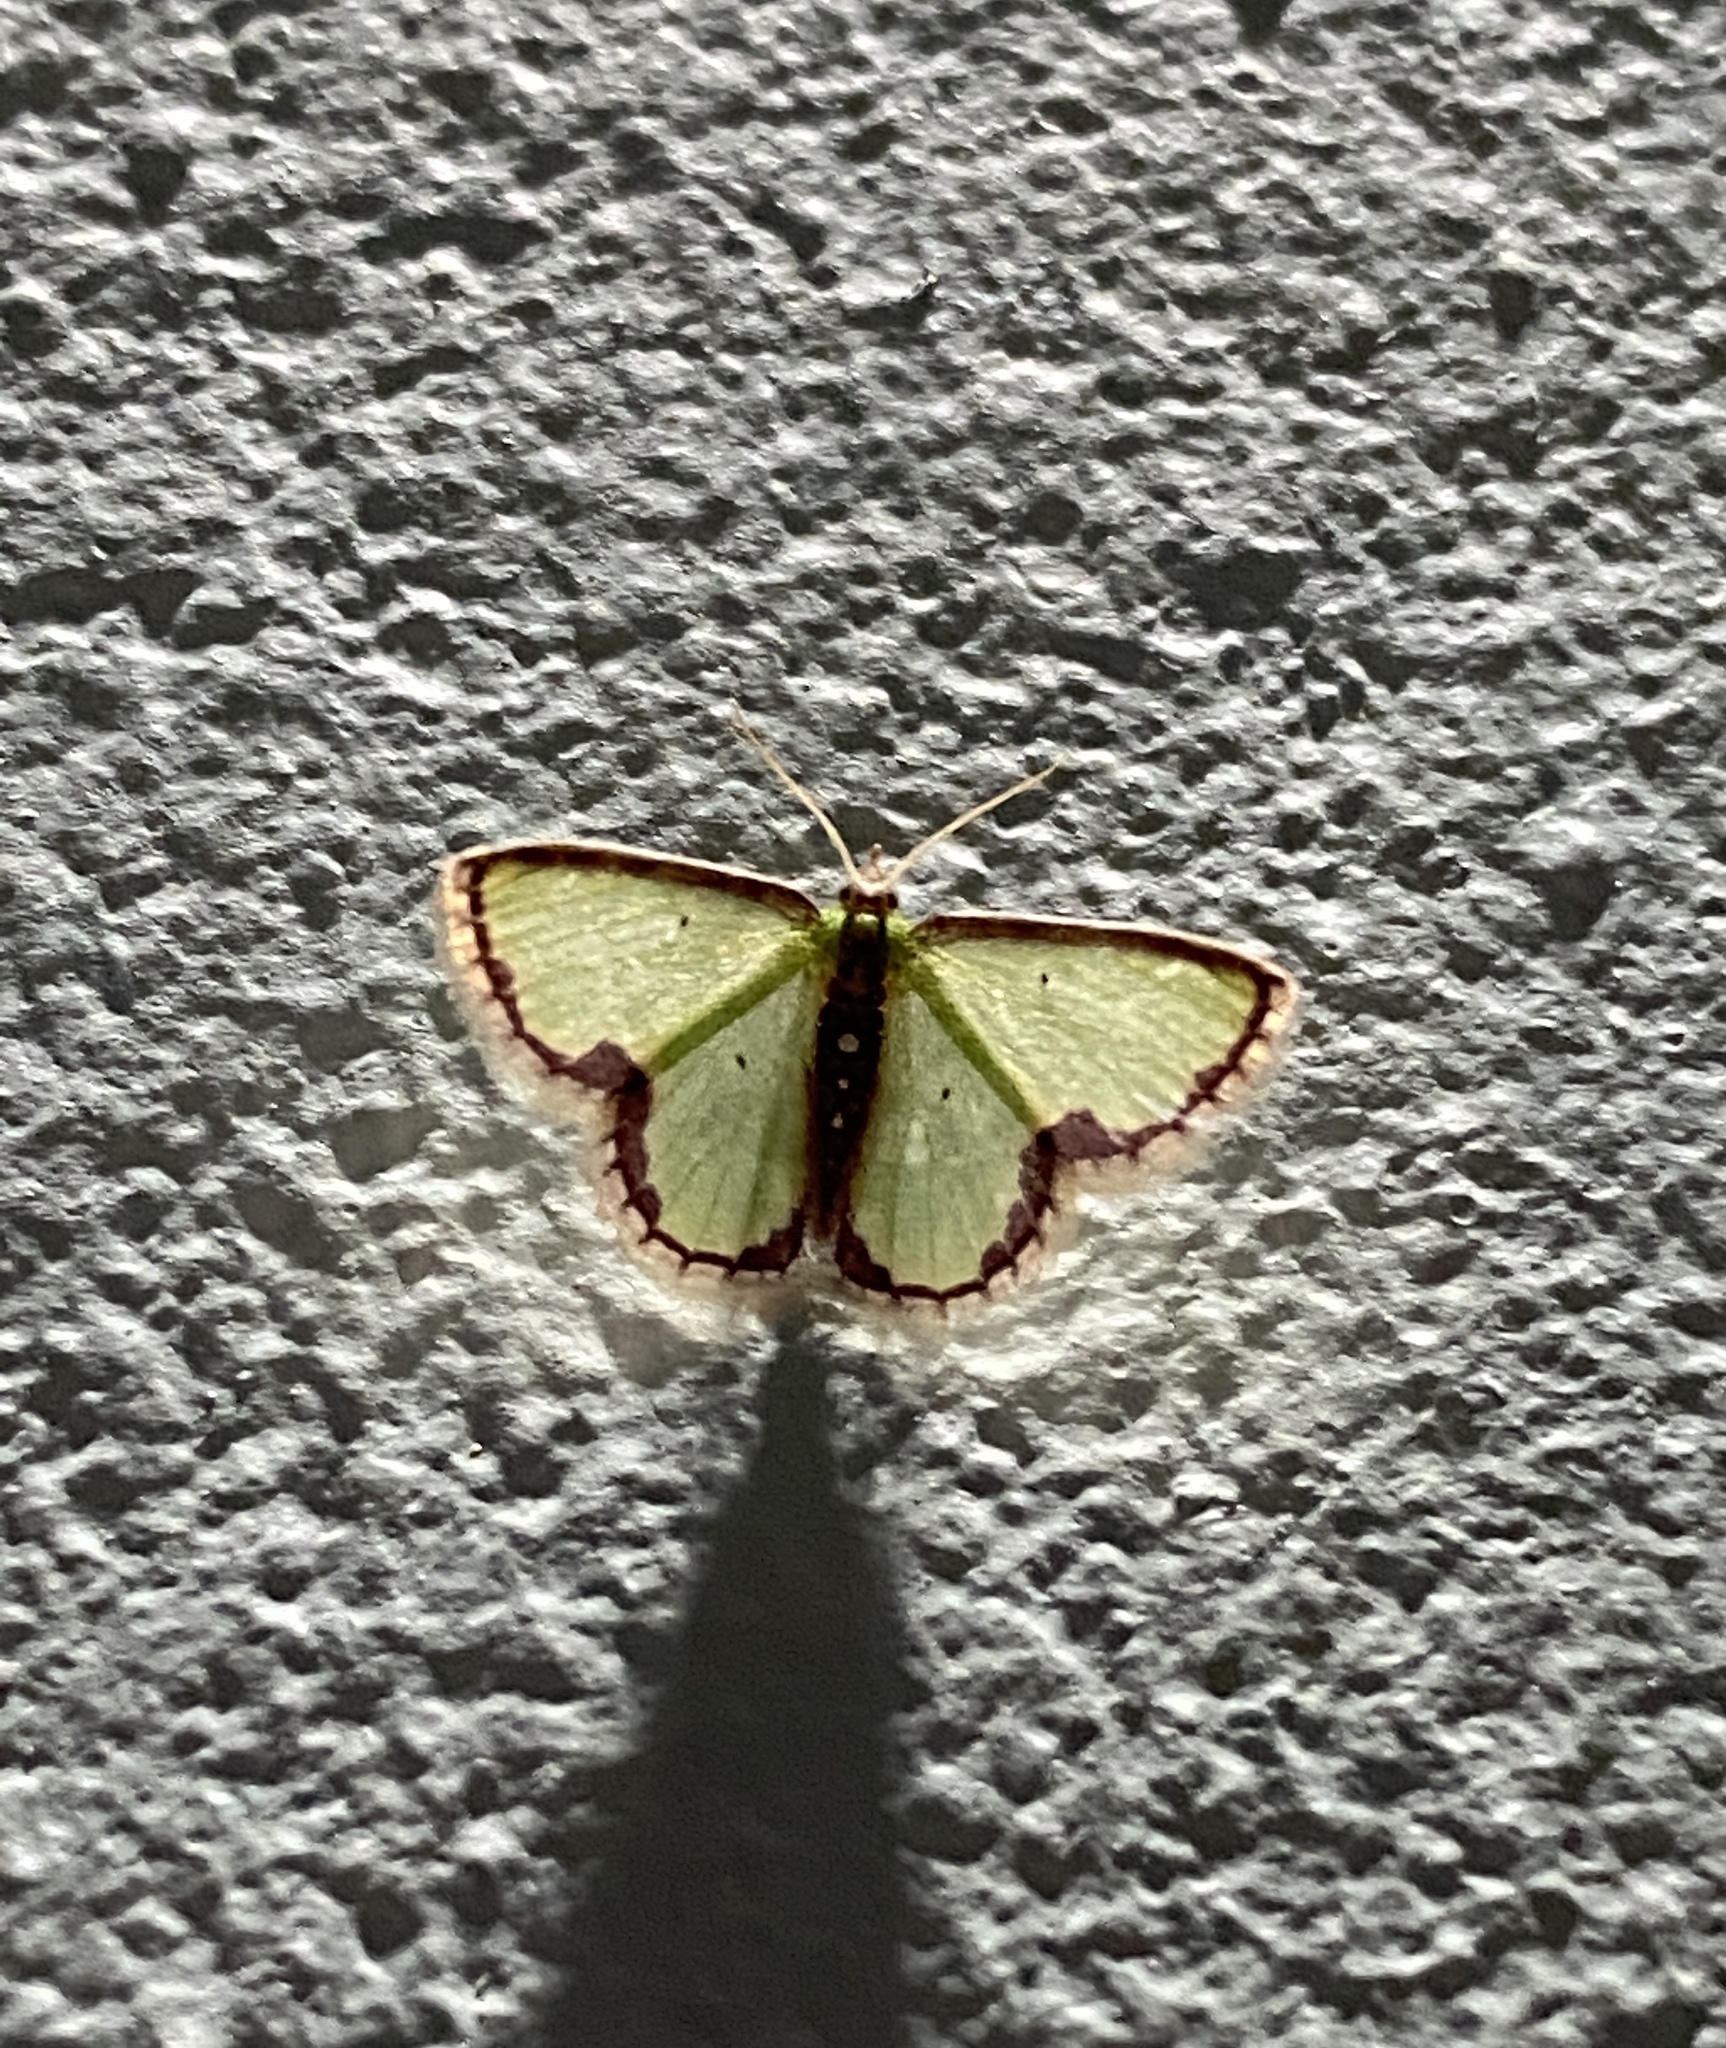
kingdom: Animalia
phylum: Arthropoda
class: Insecta
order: Lepidoptera
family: Geometridae
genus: Synchlora
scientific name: Synchlora expulsata
